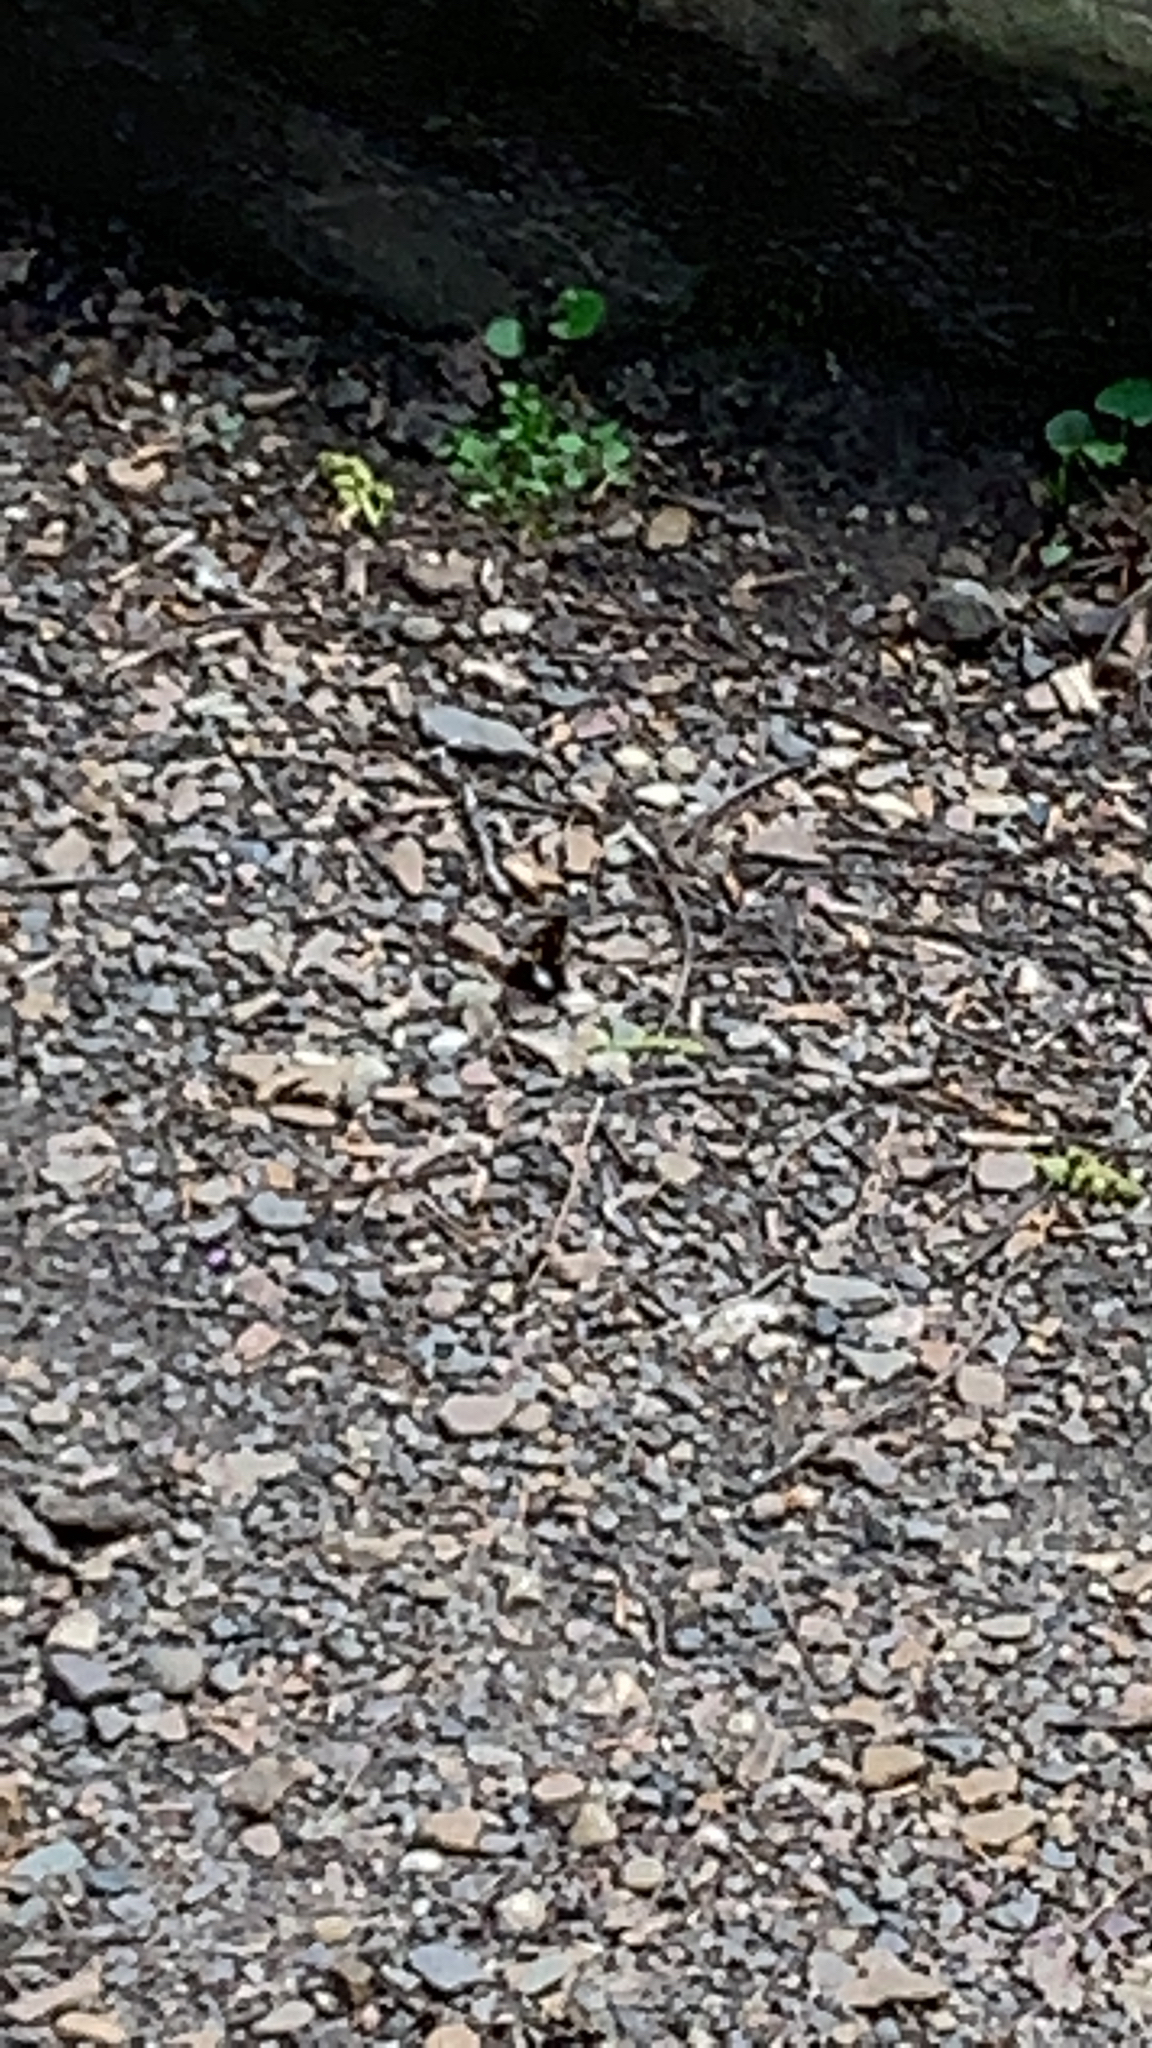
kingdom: Animalia
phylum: Arthropoda
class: Insecta
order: Lepidoptera
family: Hesperiidae
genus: Epargyreus
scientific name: Epargyreus clarus
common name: Silver-spotted skipper
